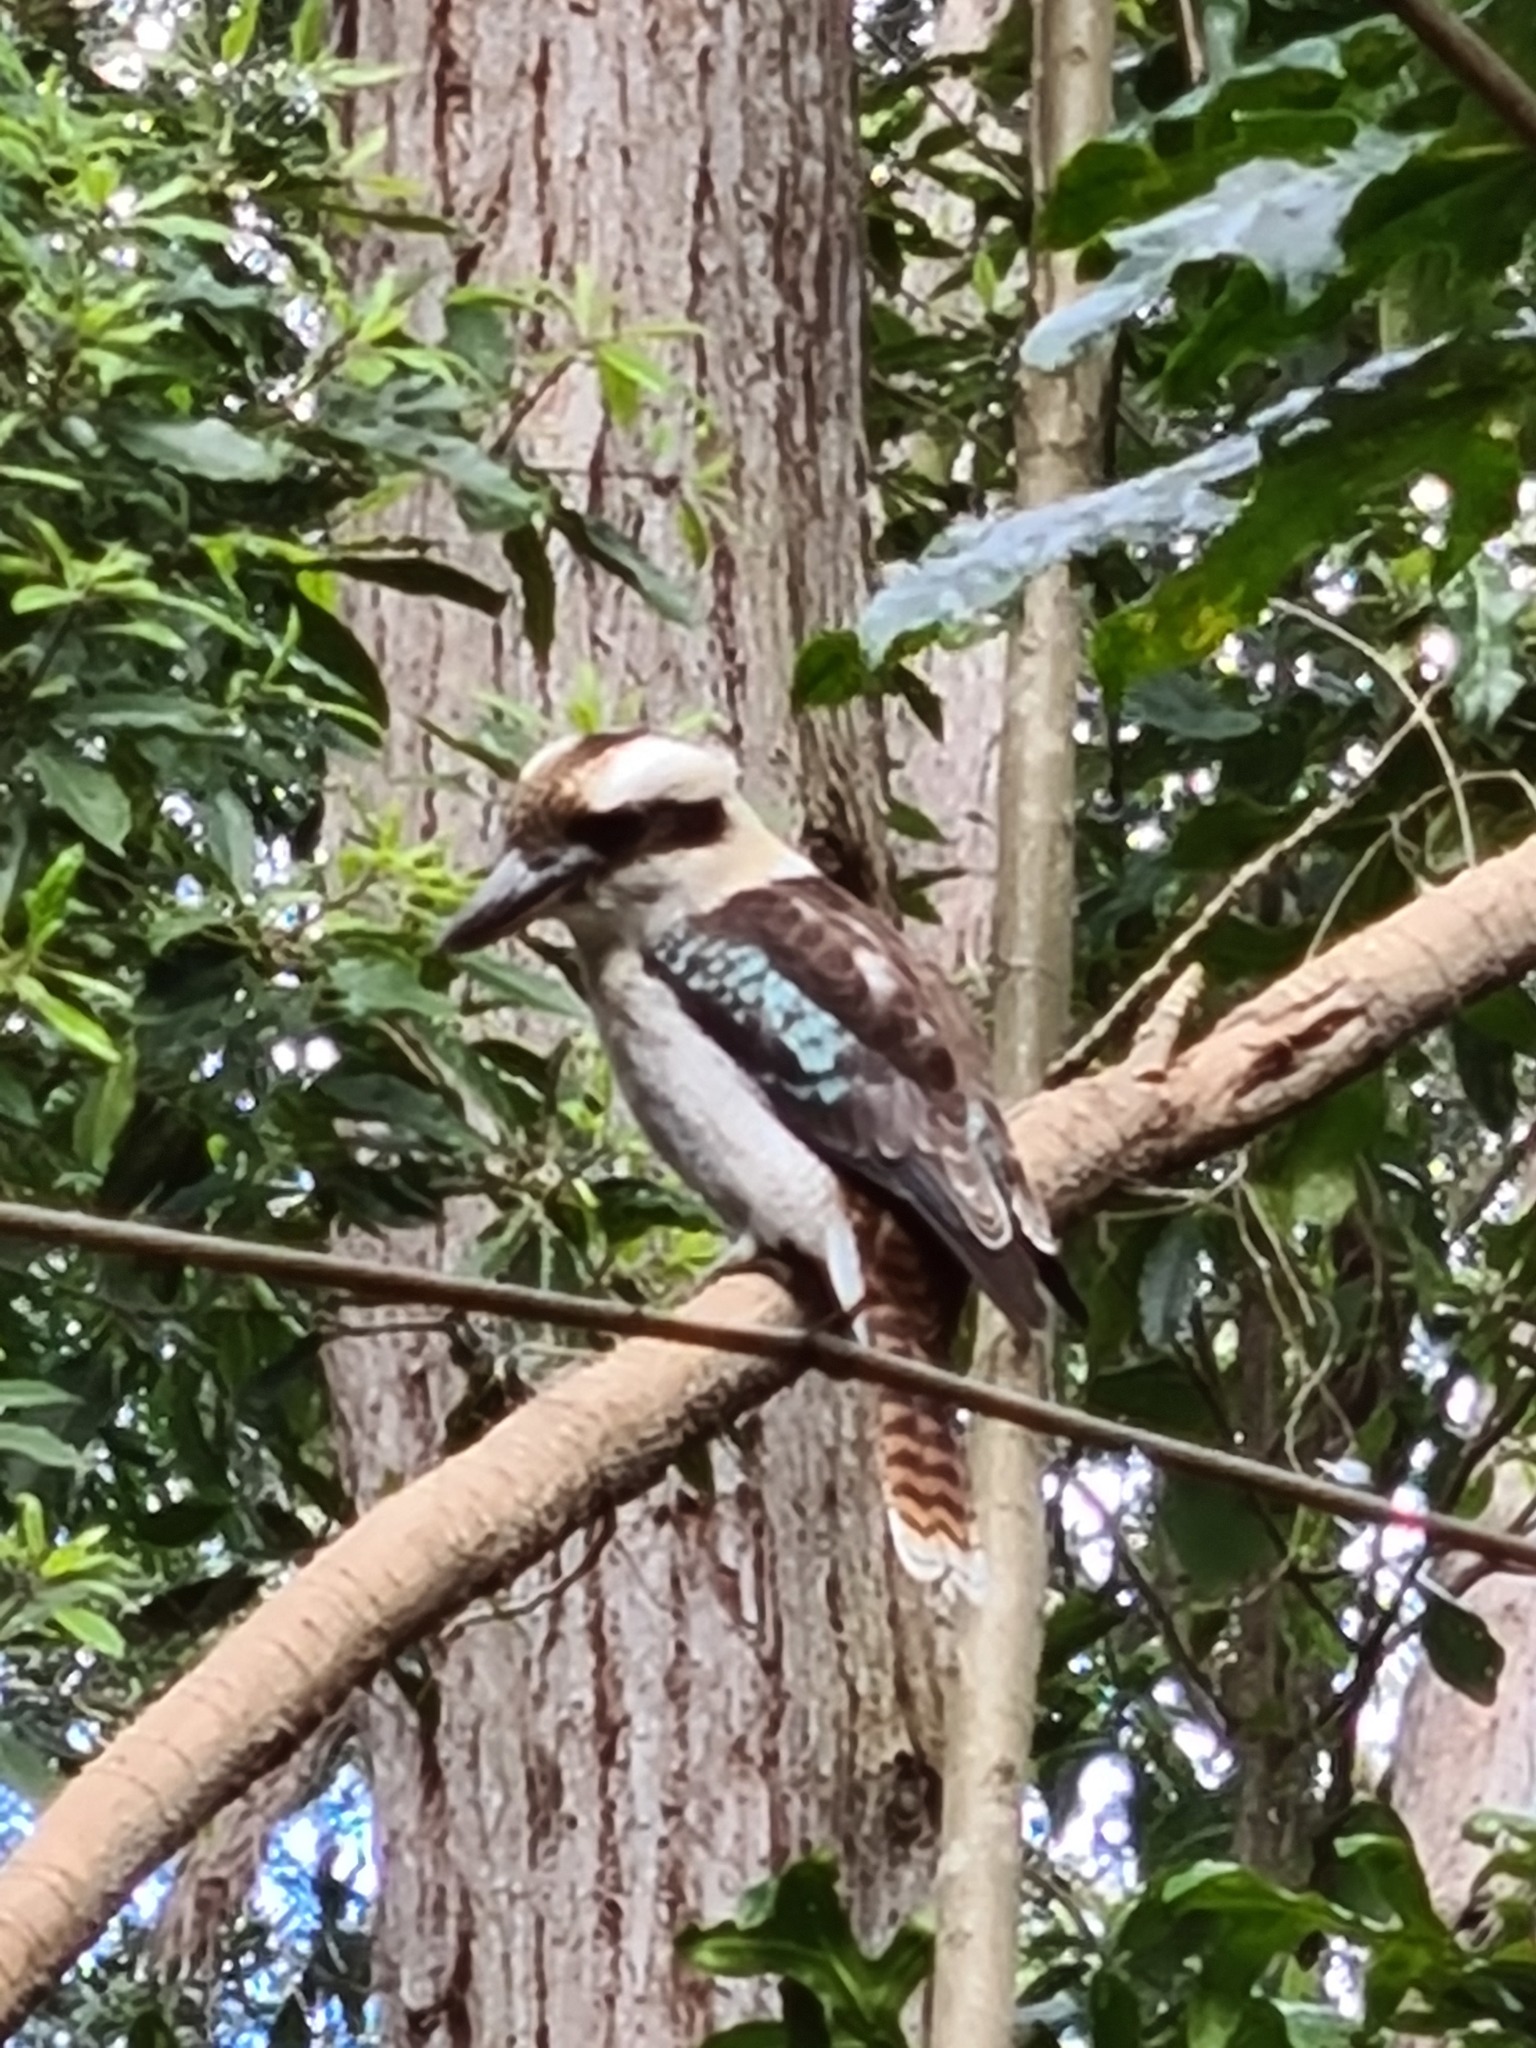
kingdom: Animalia
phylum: Chordata
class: Aves
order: Coraciiformes
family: Alcedinidae
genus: Dacelo
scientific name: Dacelo novaeguineae
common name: Laughing kookaburra
